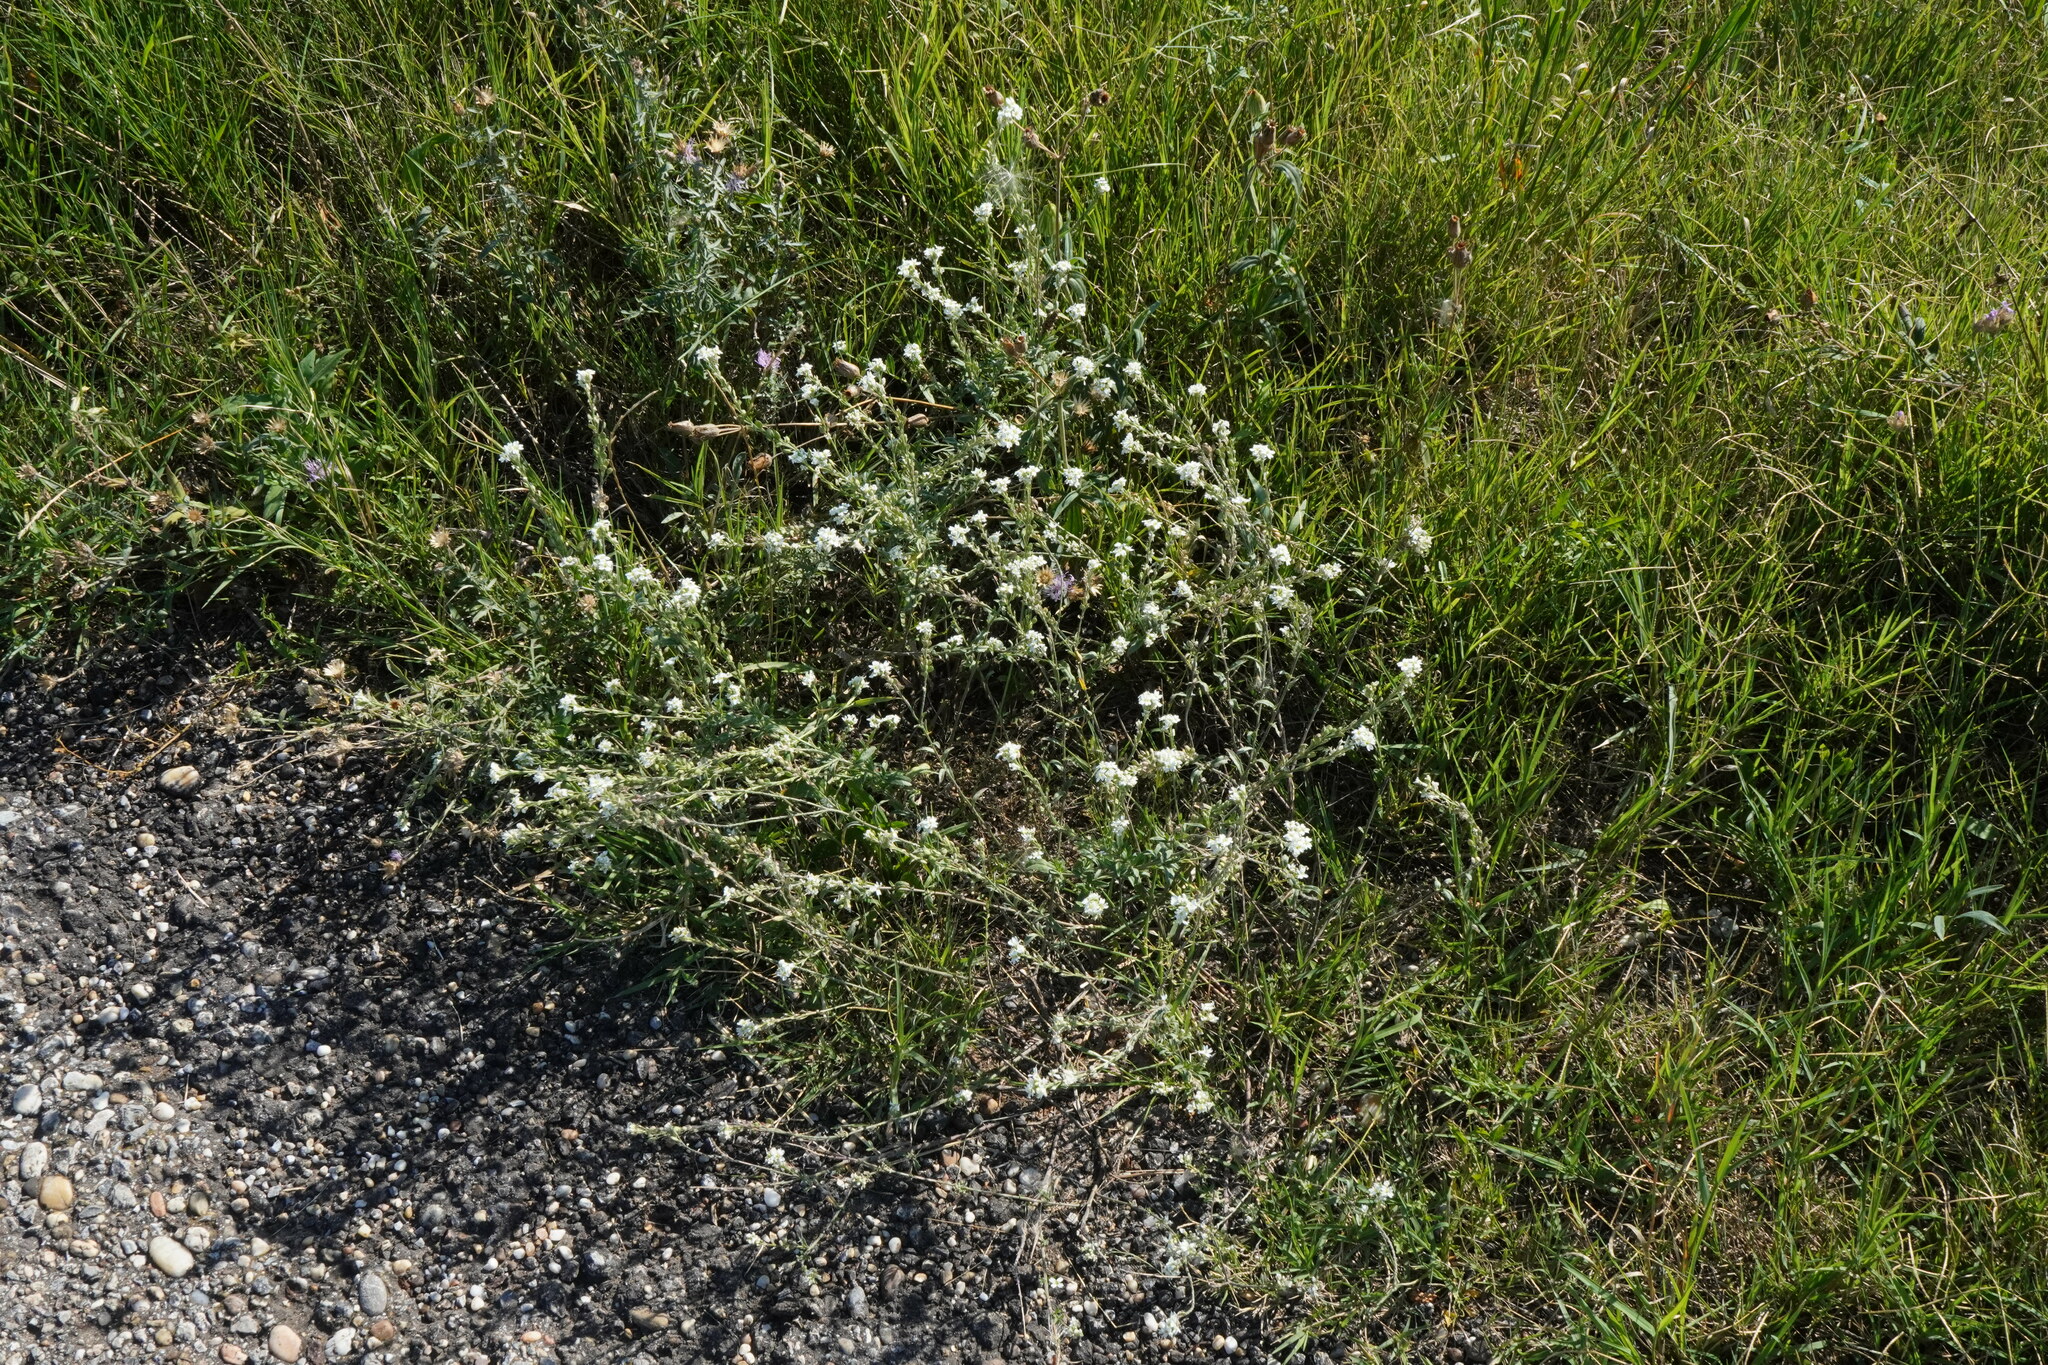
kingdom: Plantae
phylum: Tracheophyta
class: Magnoliopsida
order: Brassicales
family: Brassicaceae
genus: Berteroa
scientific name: Berteroa incana
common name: Hoary alison
